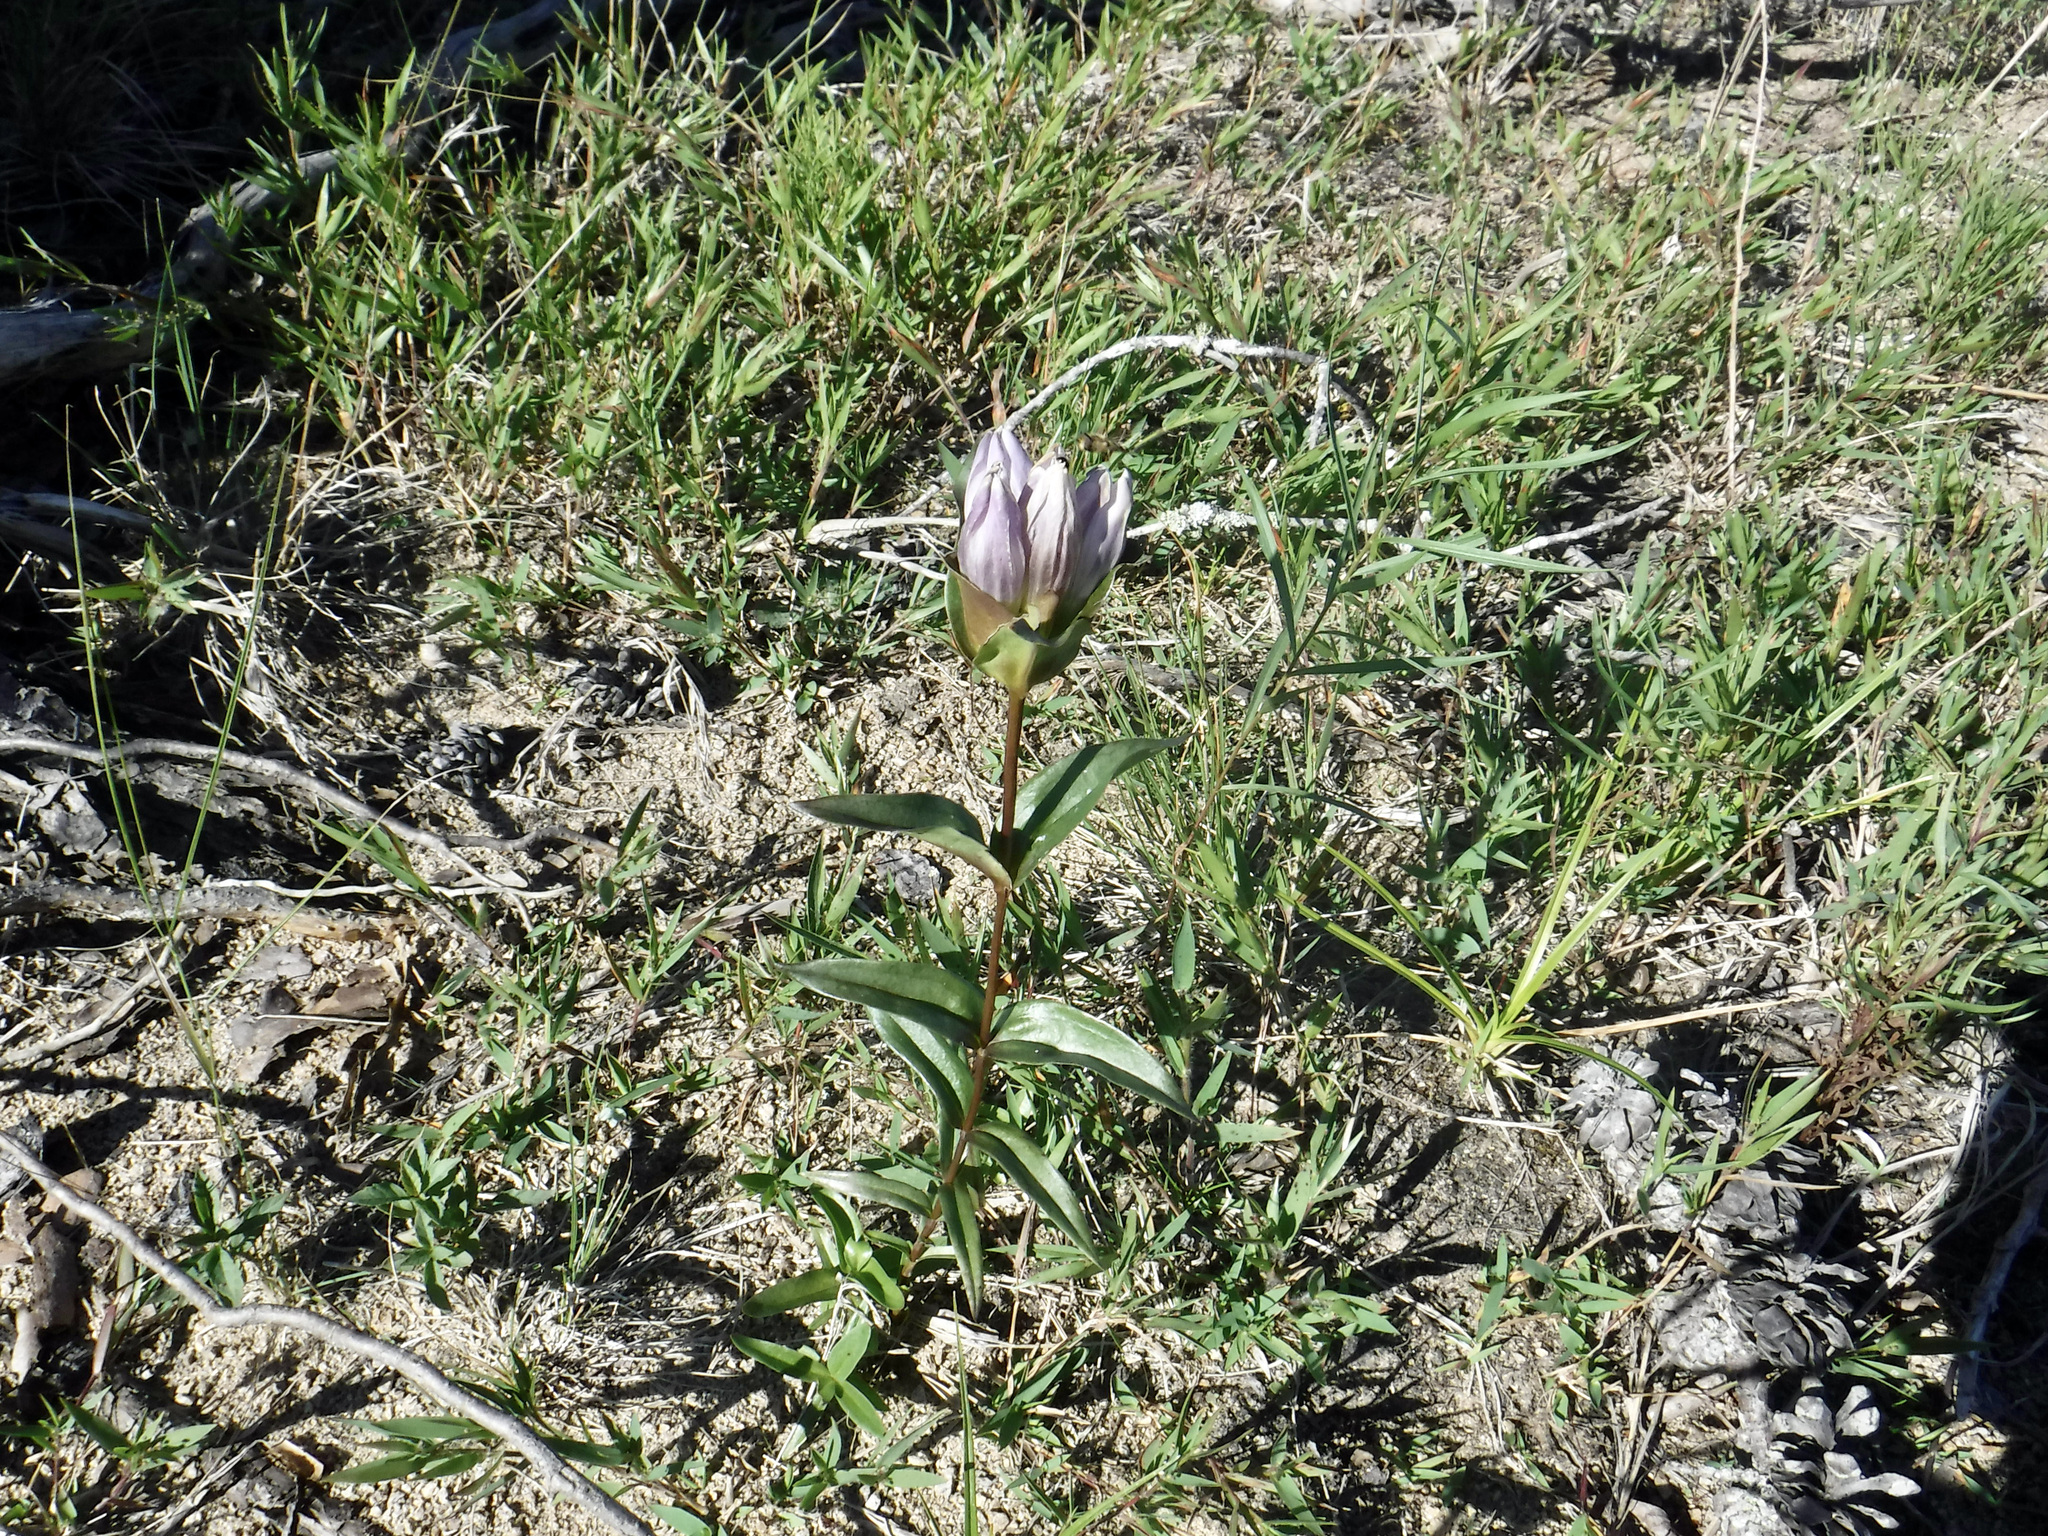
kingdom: Plantae
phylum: Tracheophyta
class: Magnoliopsida
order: Gentianales
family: Gentianaceae
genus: Gentiana
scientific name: Gentiana rubricaulis
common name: Purple-stemmed gentian
